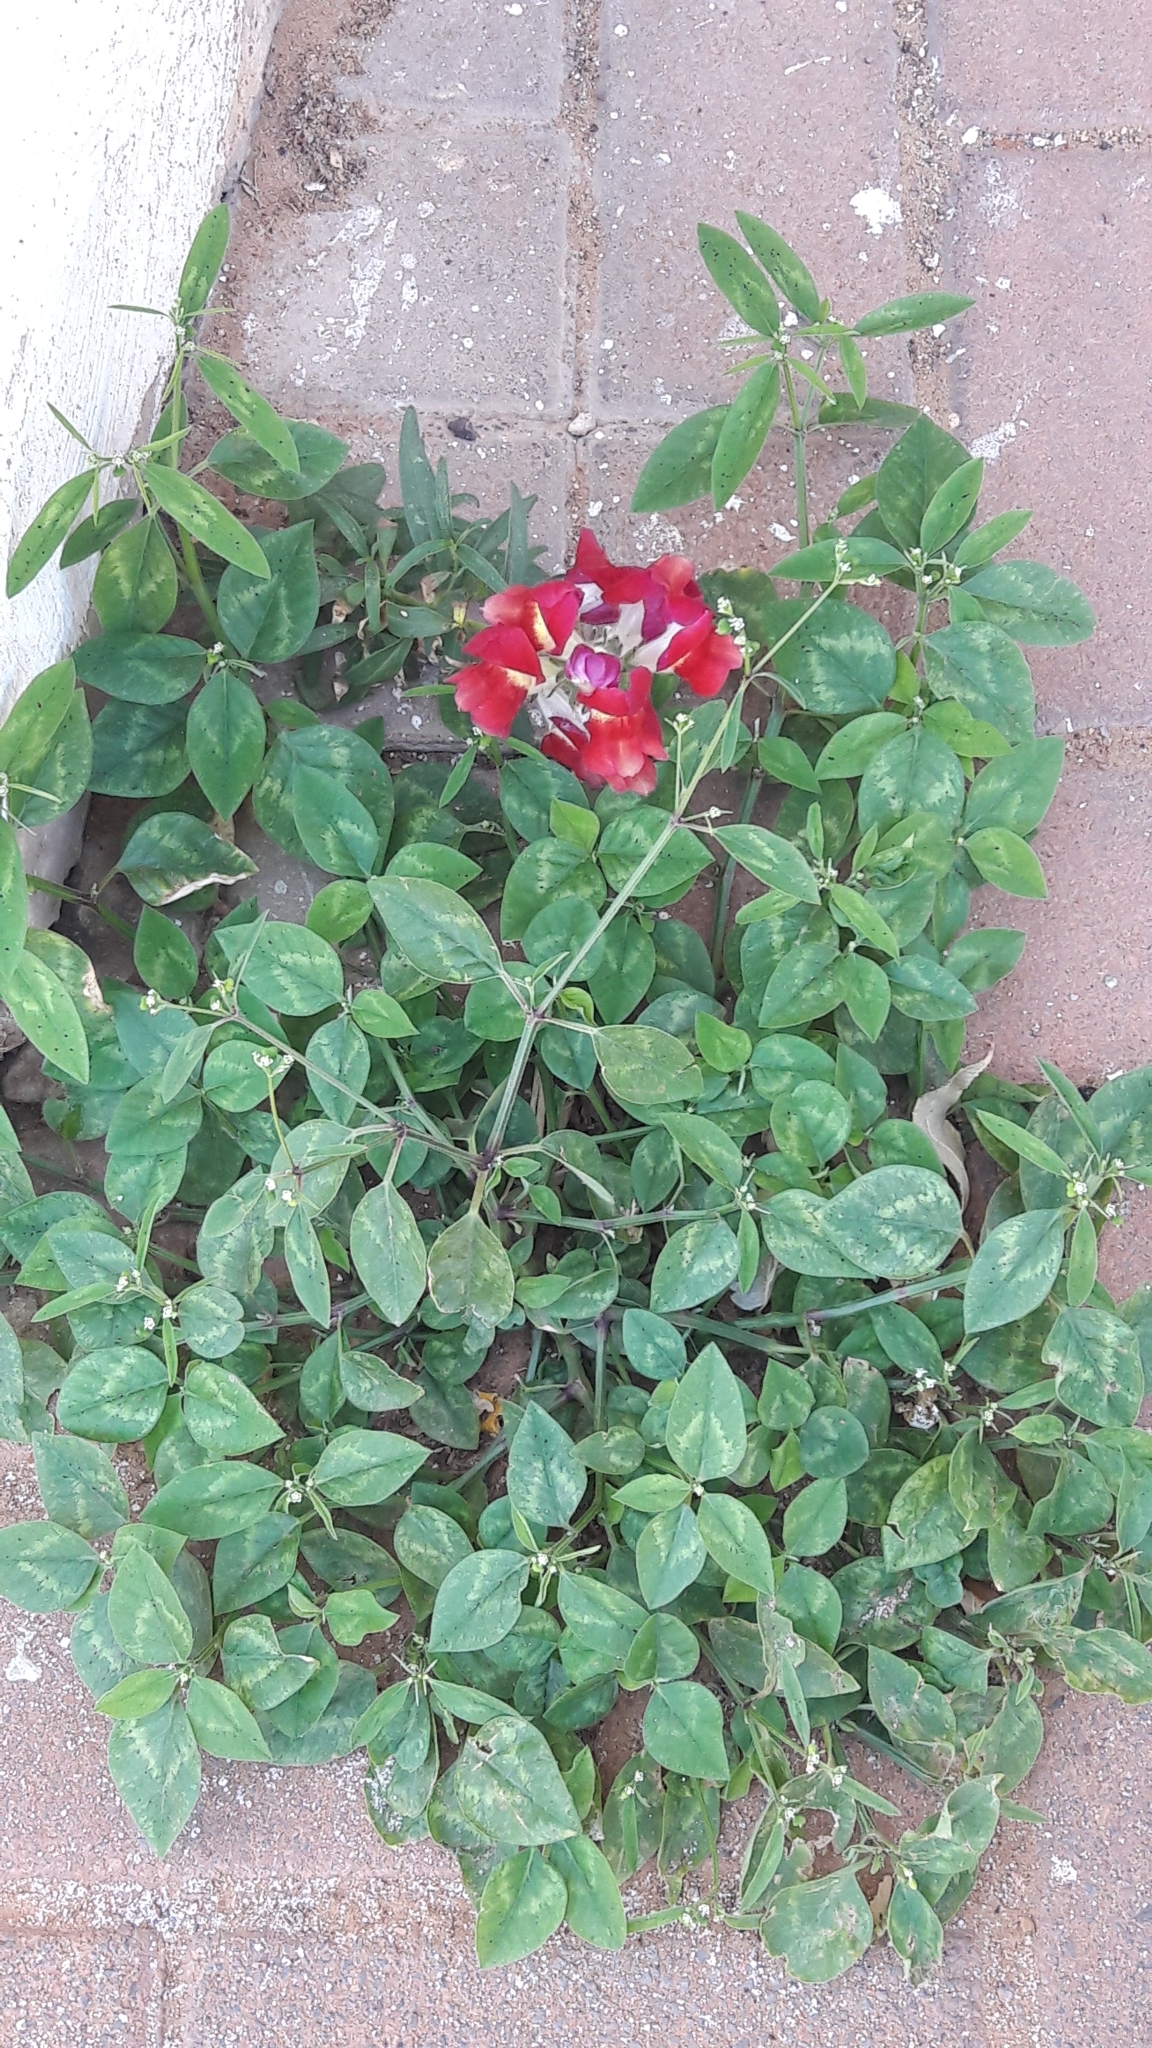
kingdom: Plantae
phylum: Tracheophyta
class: Magnoliopsida
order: Malpighiales
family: Euphorbiaceae
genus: Euphorbia
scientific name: Euphorbia graminea
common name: Grassleaf spurge
